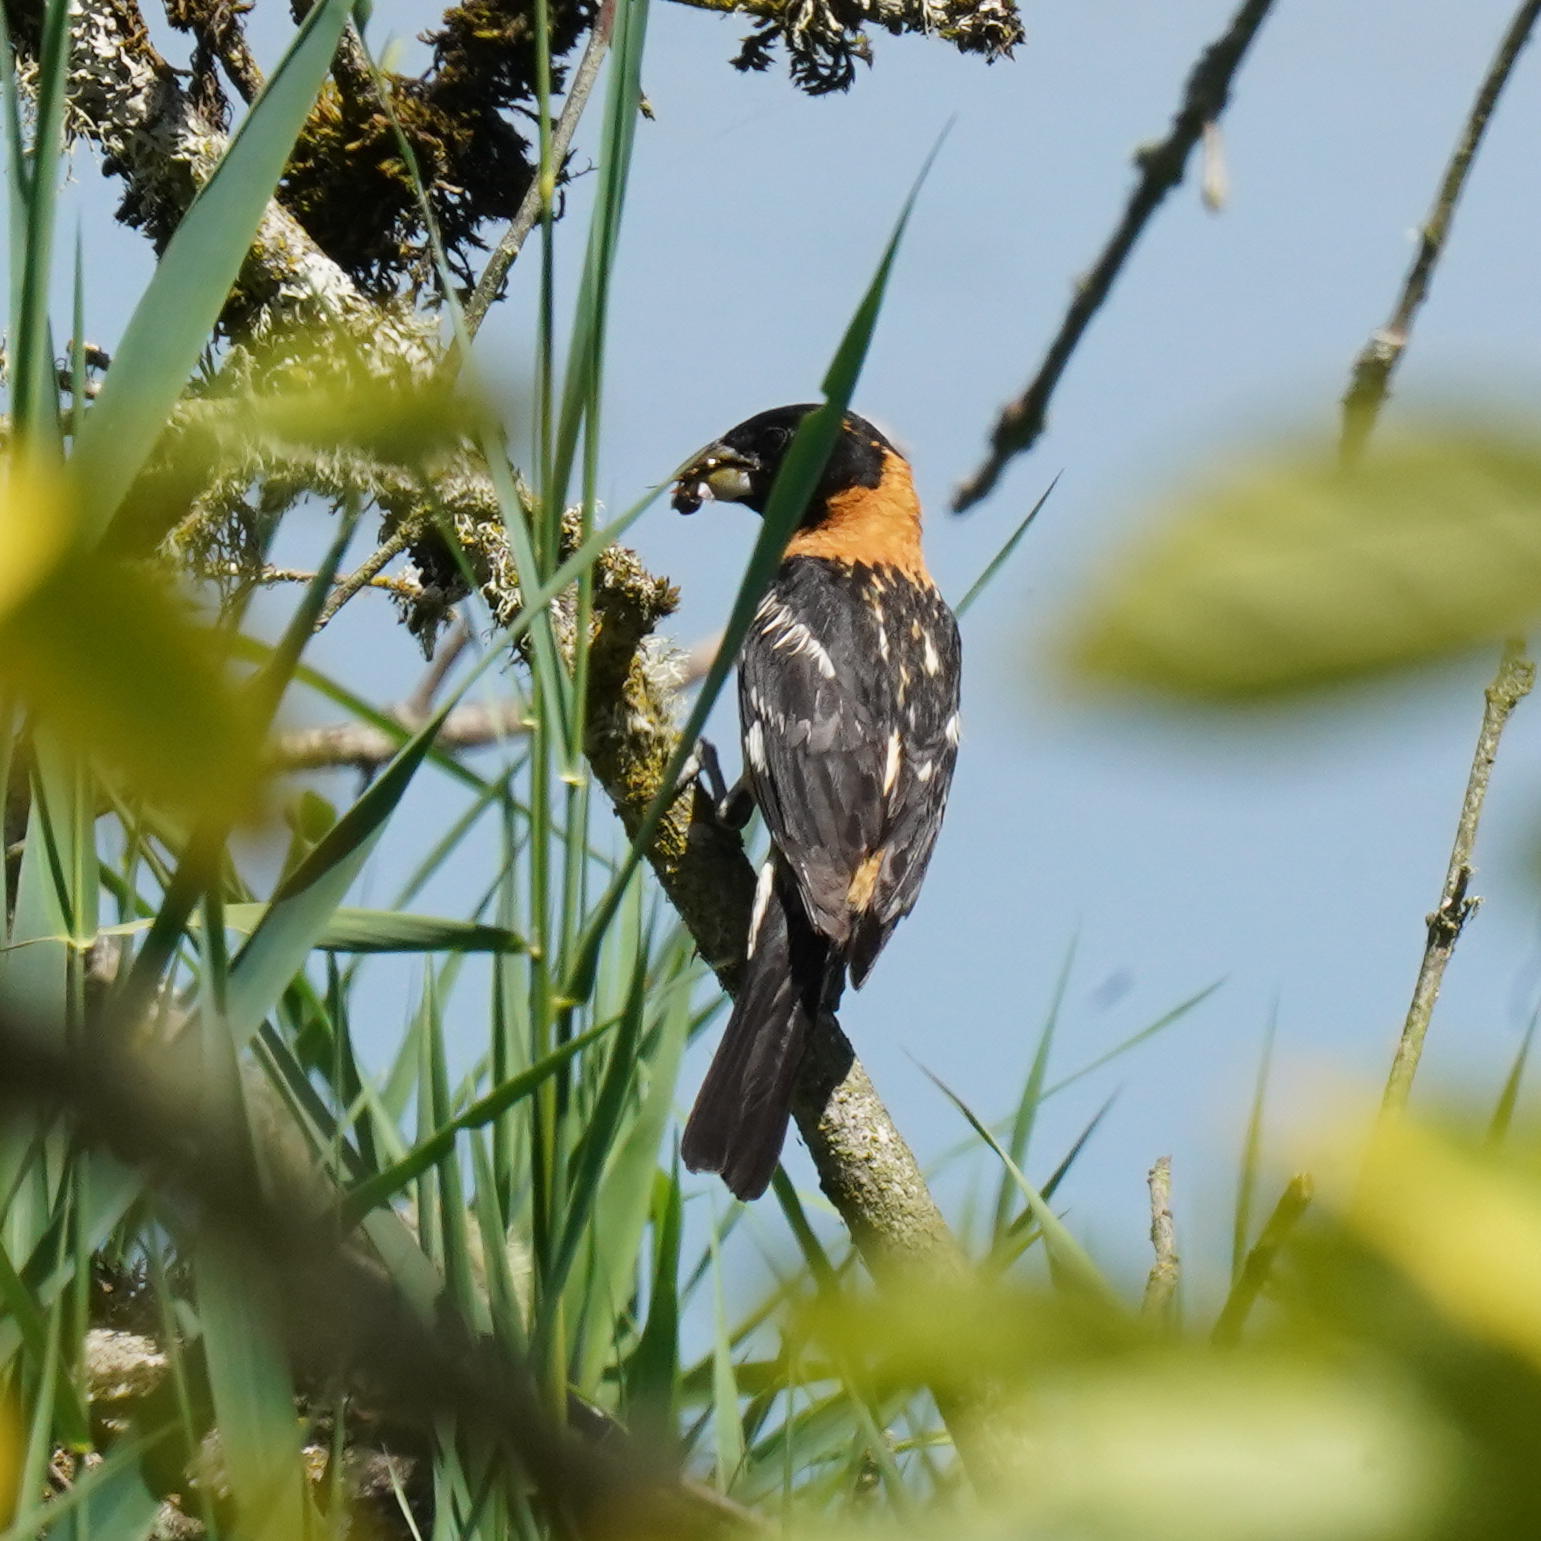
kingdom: Animalia
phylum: Chordata
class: Aves
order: Passeriformes
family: Cardinalidae
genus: Pheucticus
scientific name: Pheucticus melanocephalus
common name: Black-headed grosbeak
